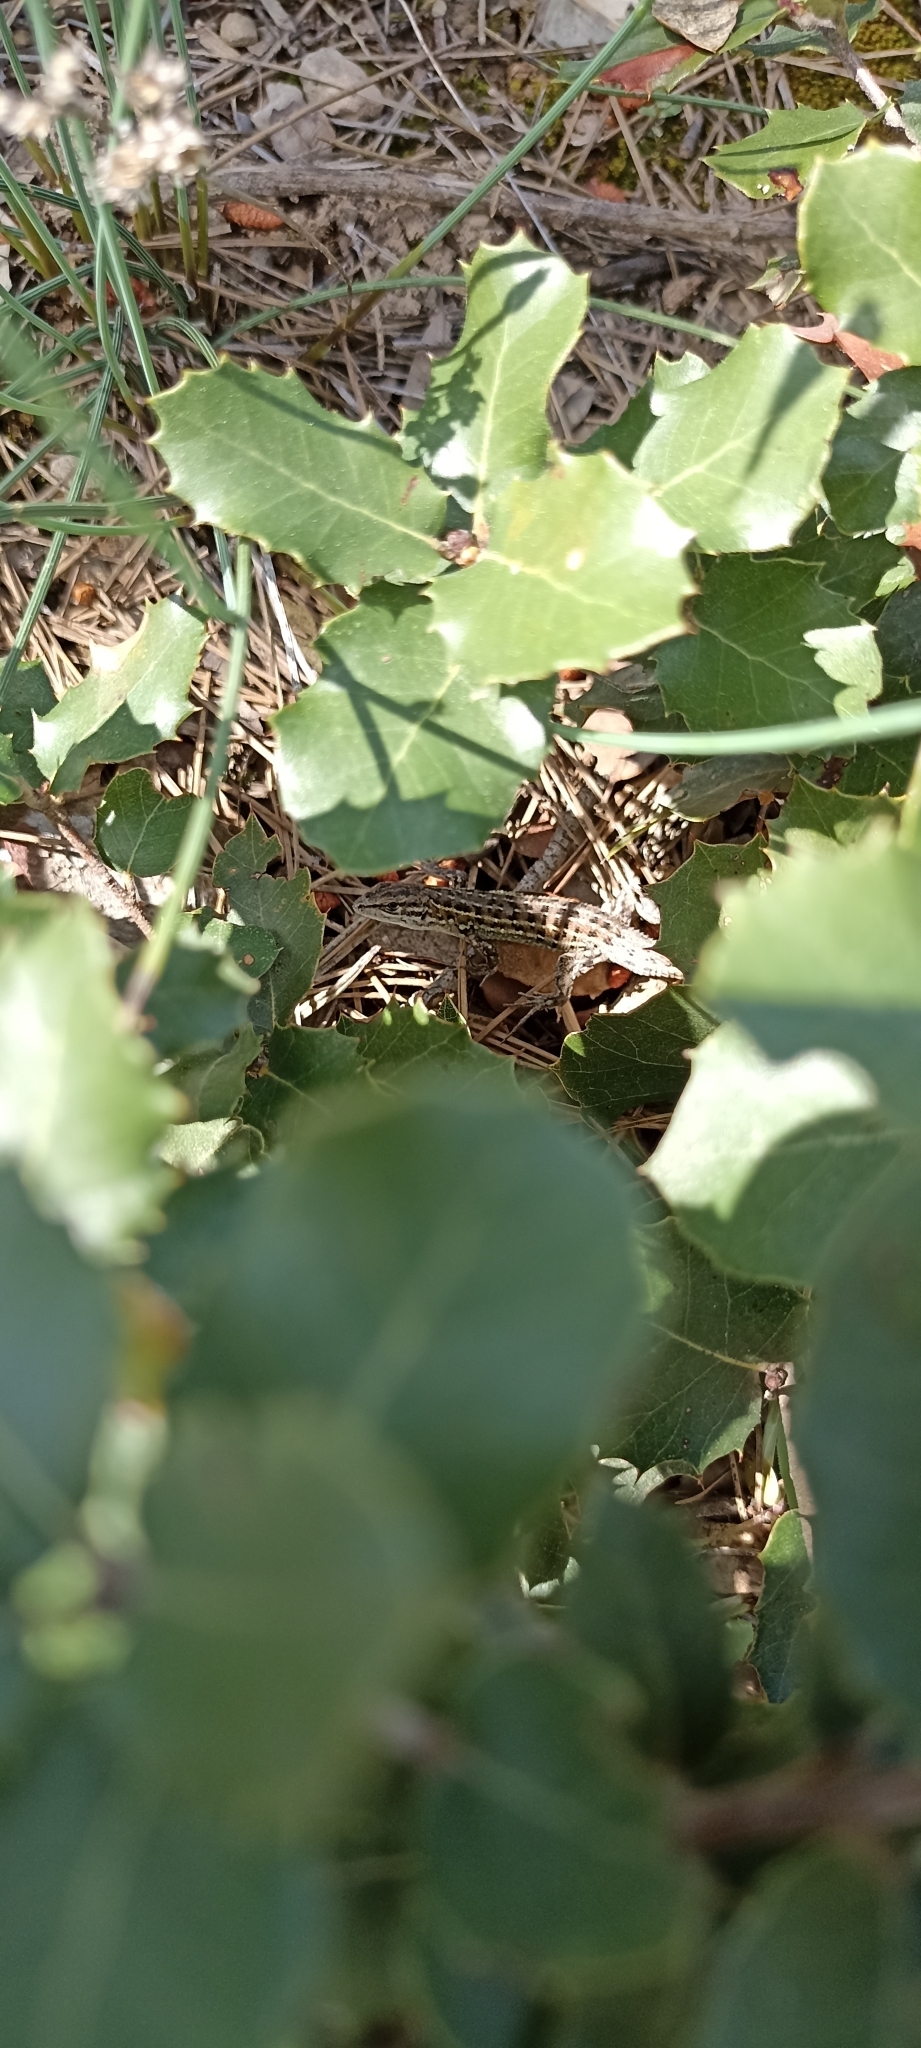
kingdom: Animalia
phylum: Chordata
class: Squamata
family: Lacertidae
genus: Psammodromus
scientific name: Psammodromus edwarsianus
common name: East iberian psammodromus
